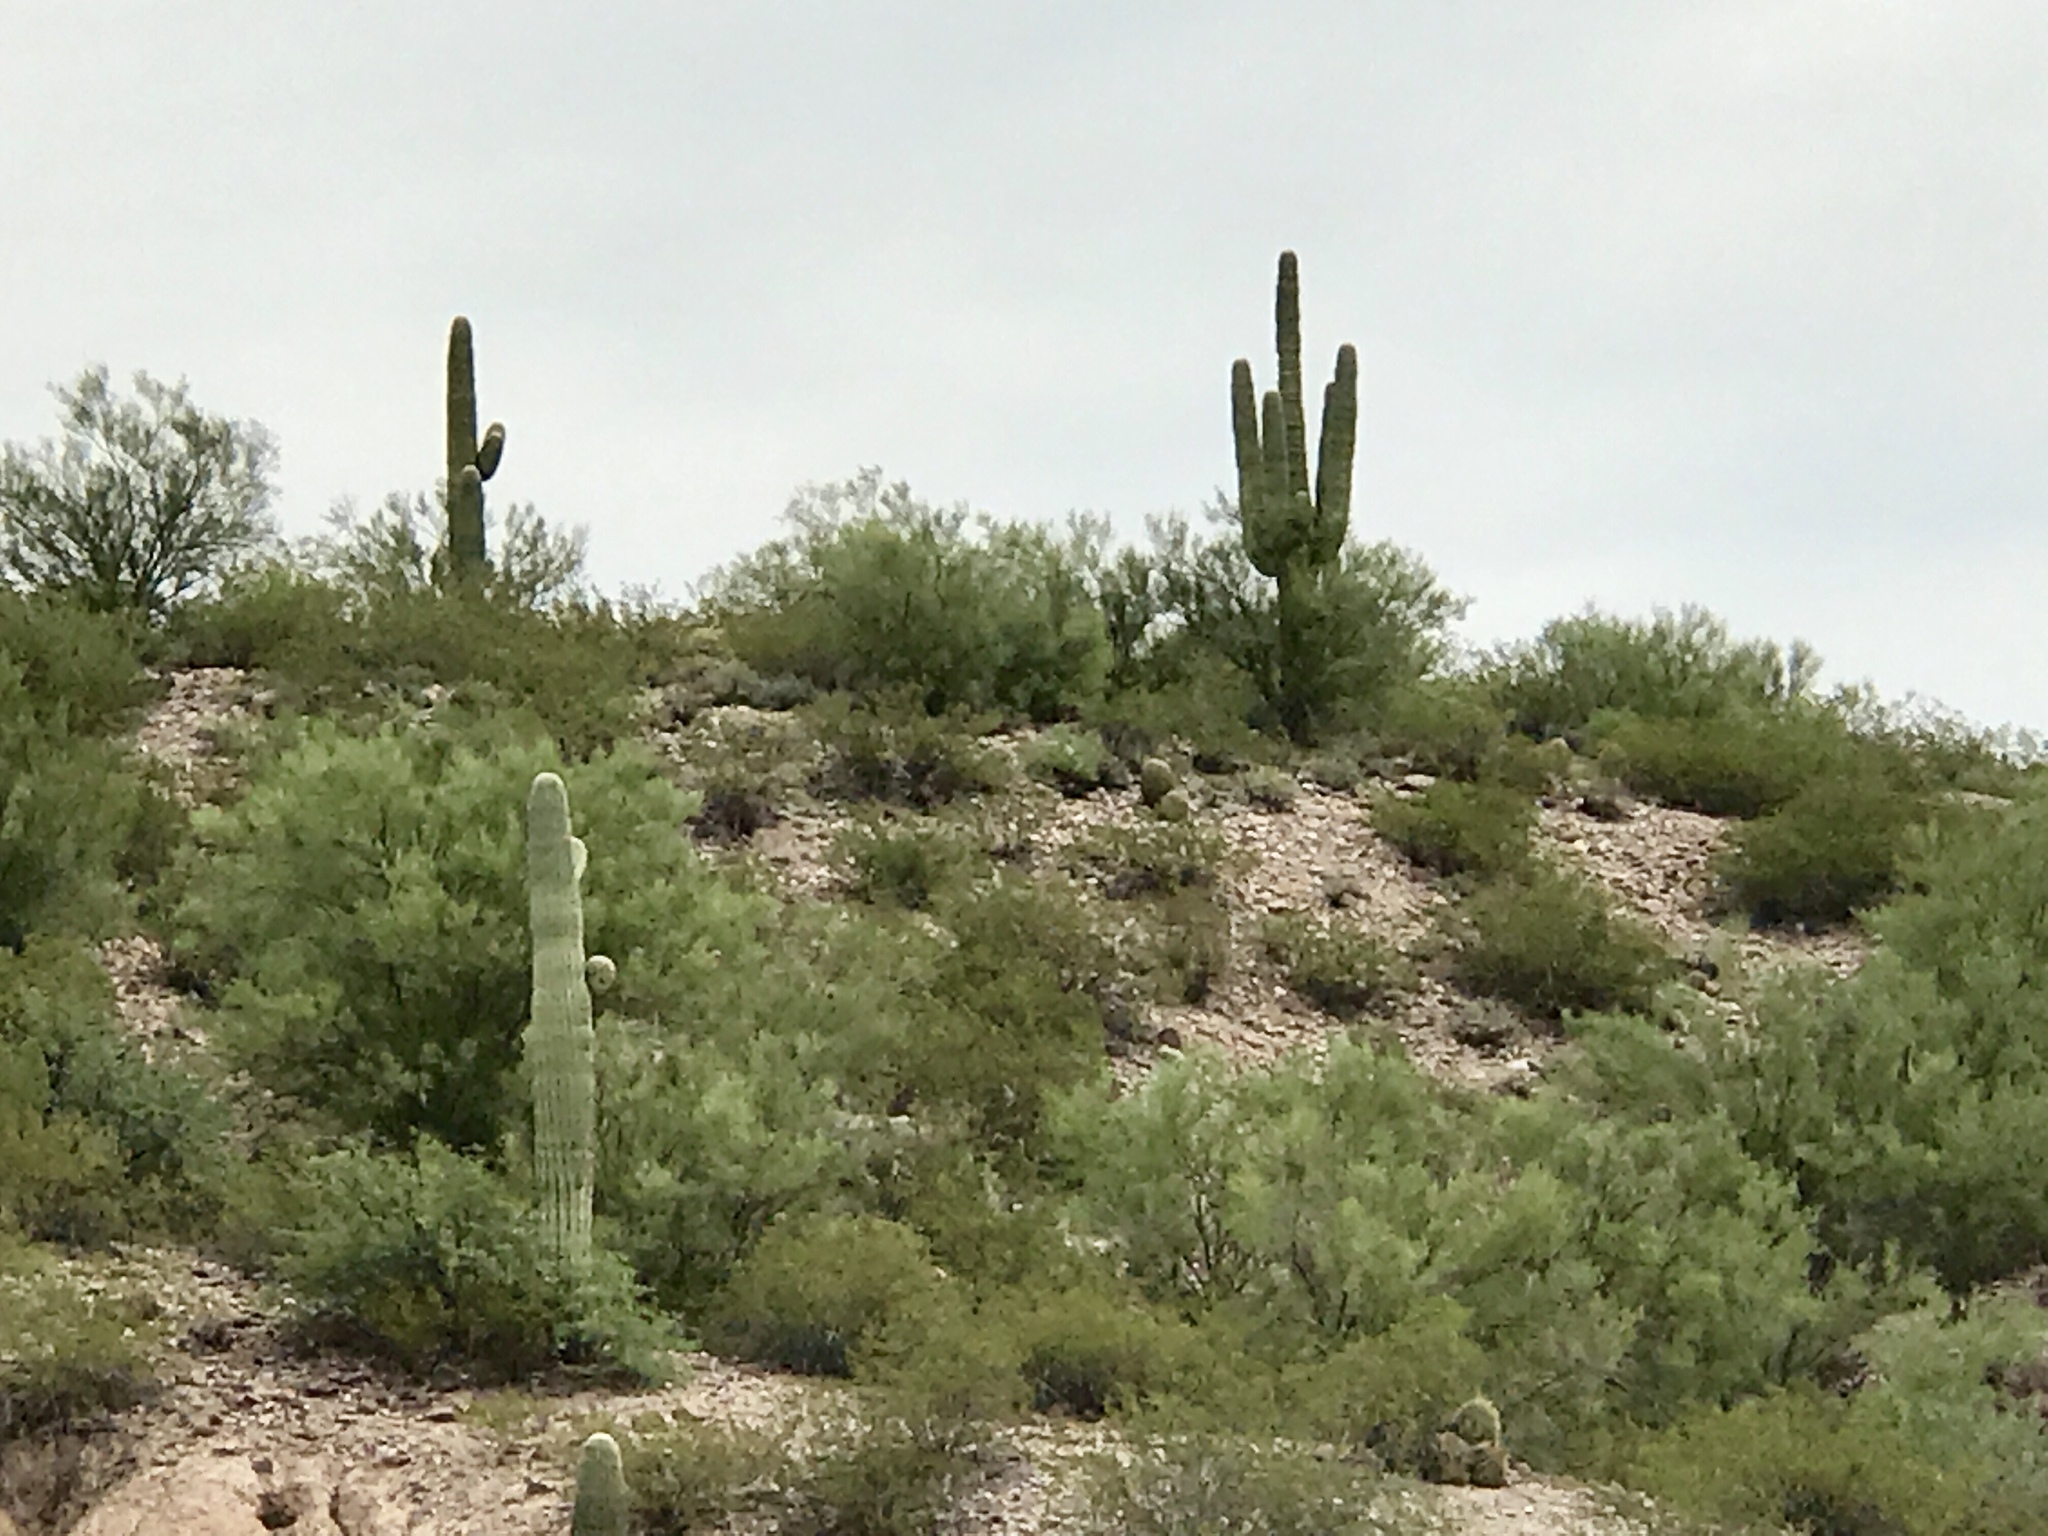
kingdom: Plantae
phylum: Tracheophyta
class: Magnoliopsida
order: Caryophyllales
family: Cactaceae
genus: Carnegiea
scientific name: Carnegiea gigantea
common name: Saguaro
